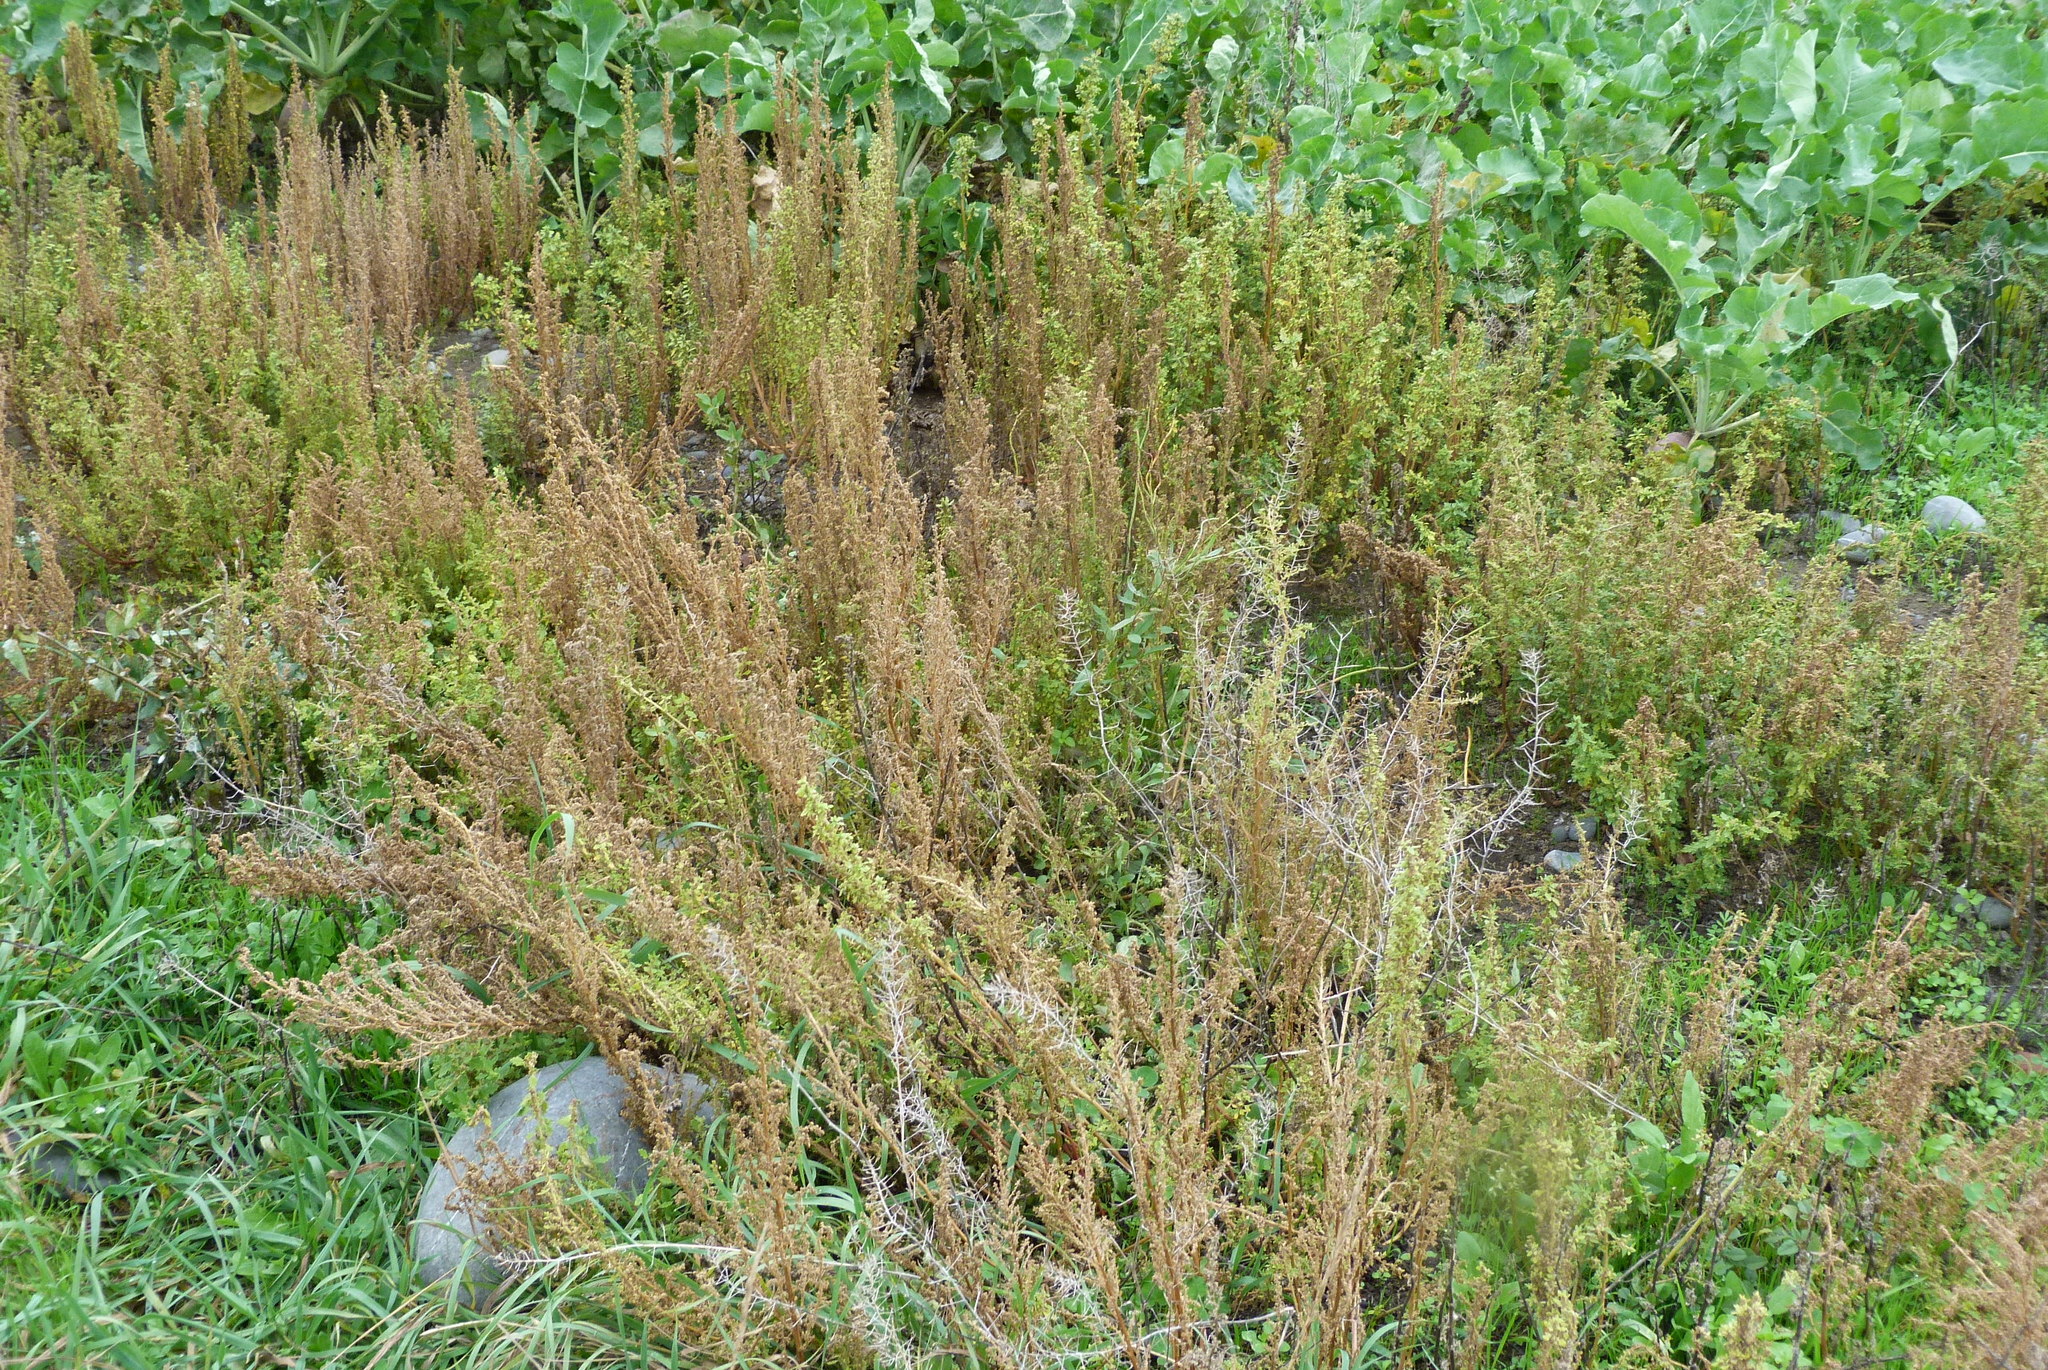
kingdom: Plantae
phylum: Tracheophyta
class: Magnoliopsida
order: Caryophyllales
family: Amaranthaceae
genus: Dysphania
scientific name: Dysphania pumilio
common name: Clammy goosefoot
